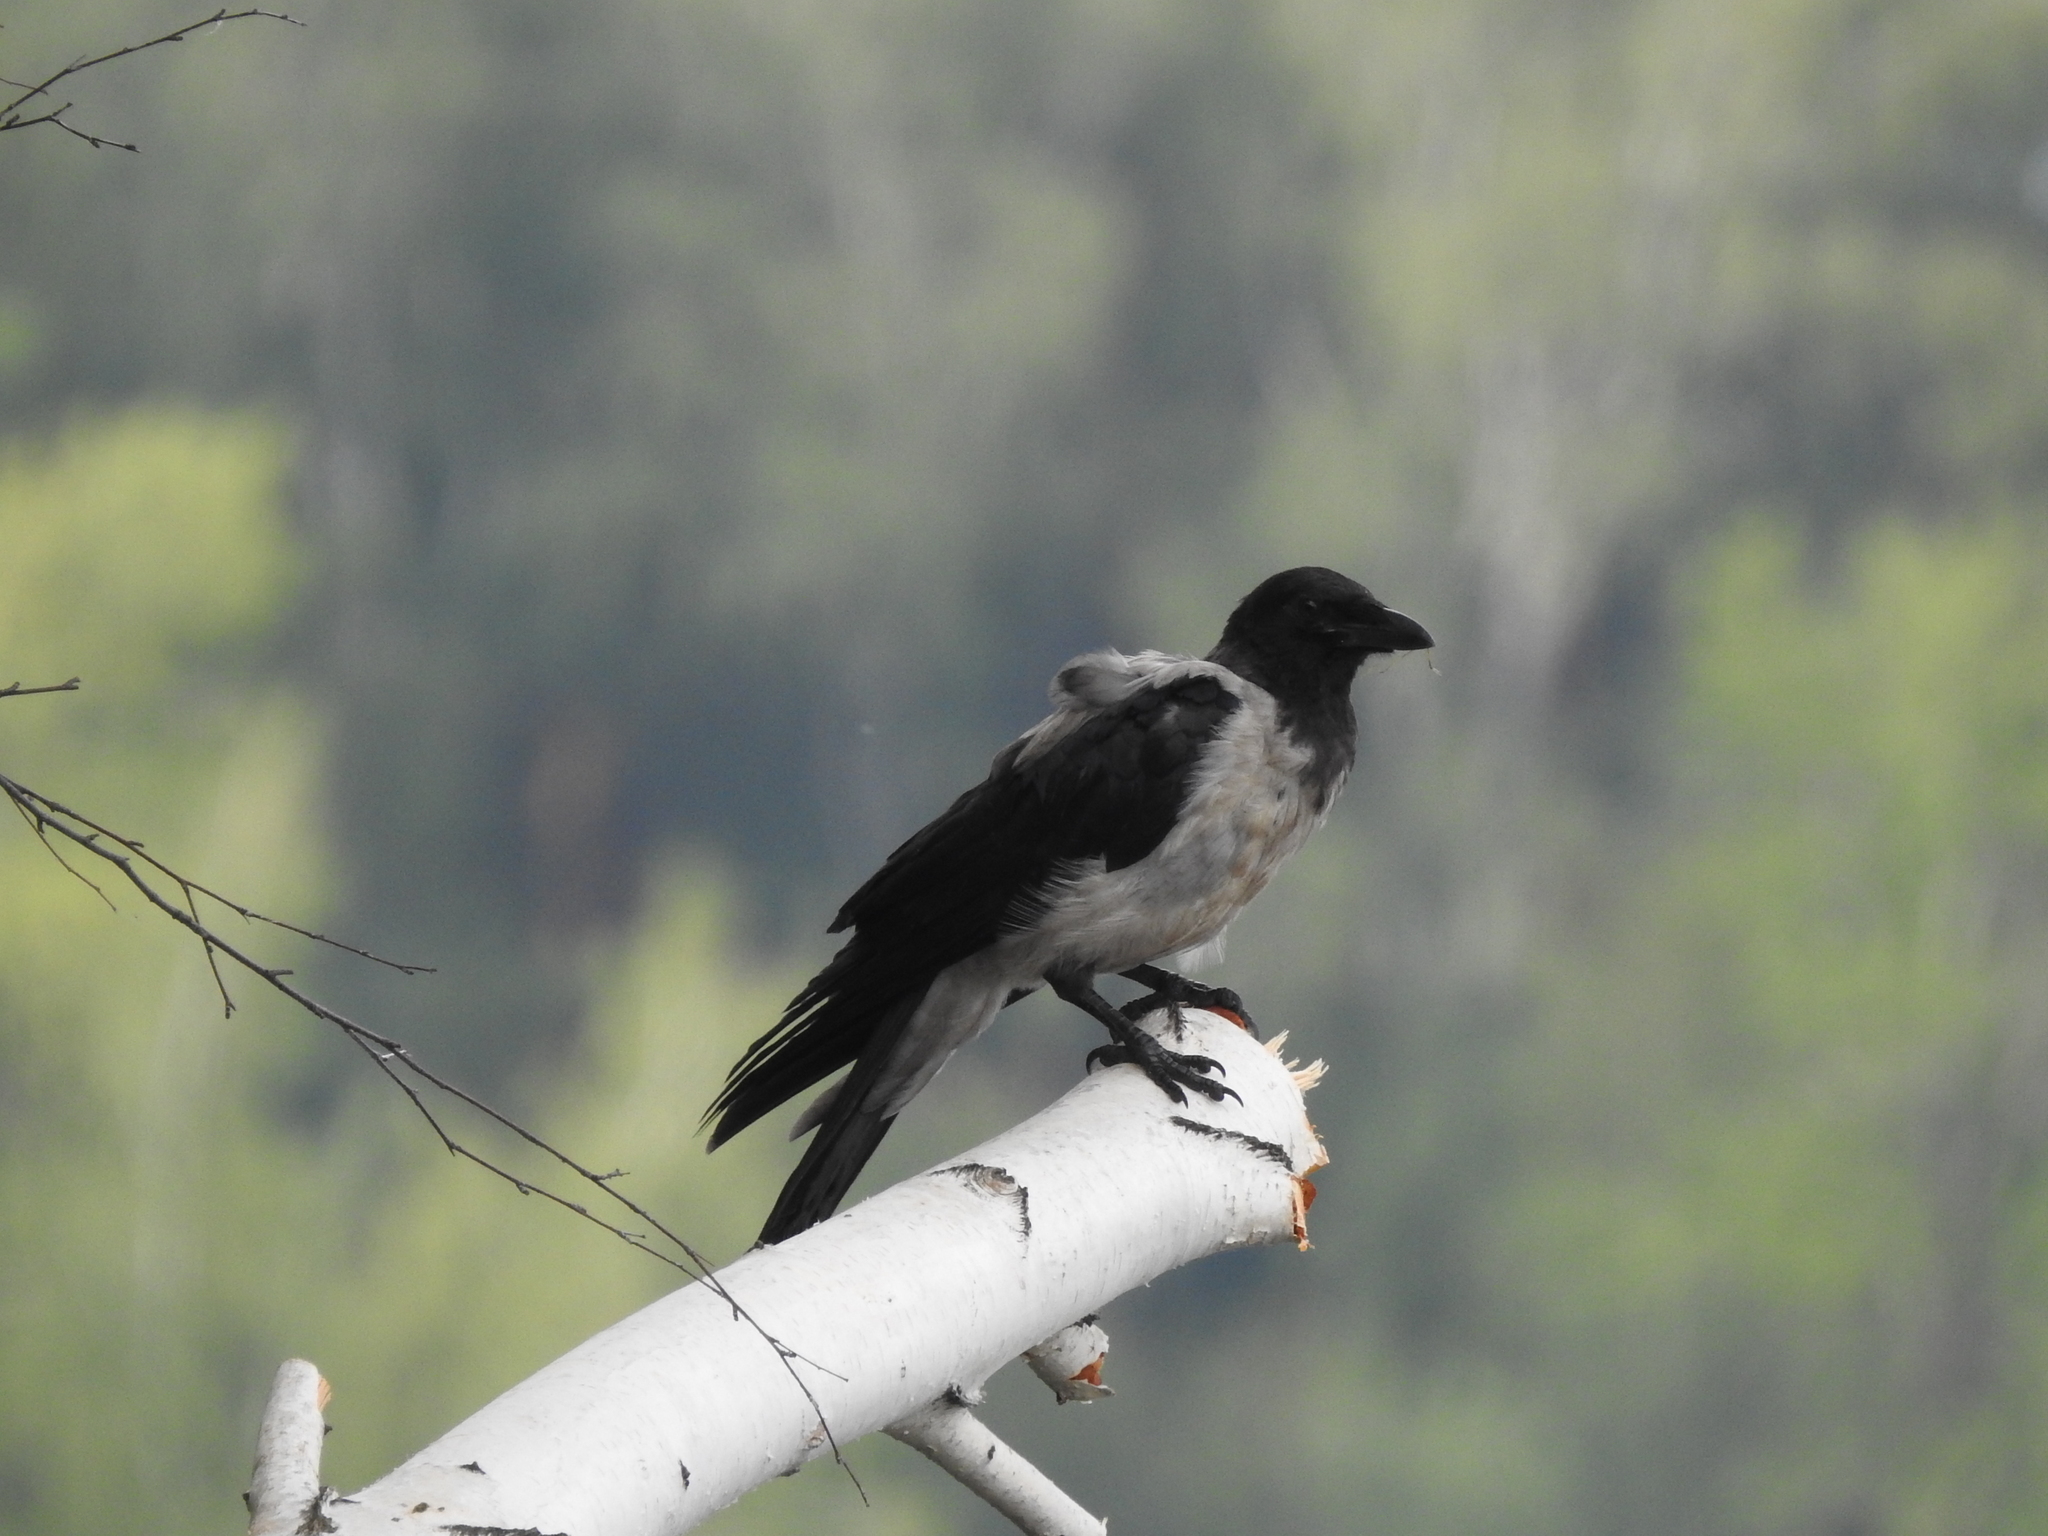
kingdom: Animalia
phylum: Chordata
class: Aves
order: Passeriformes
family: Corvidae
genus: Corvus
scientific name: Corvus cornix
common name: Hooded crow
